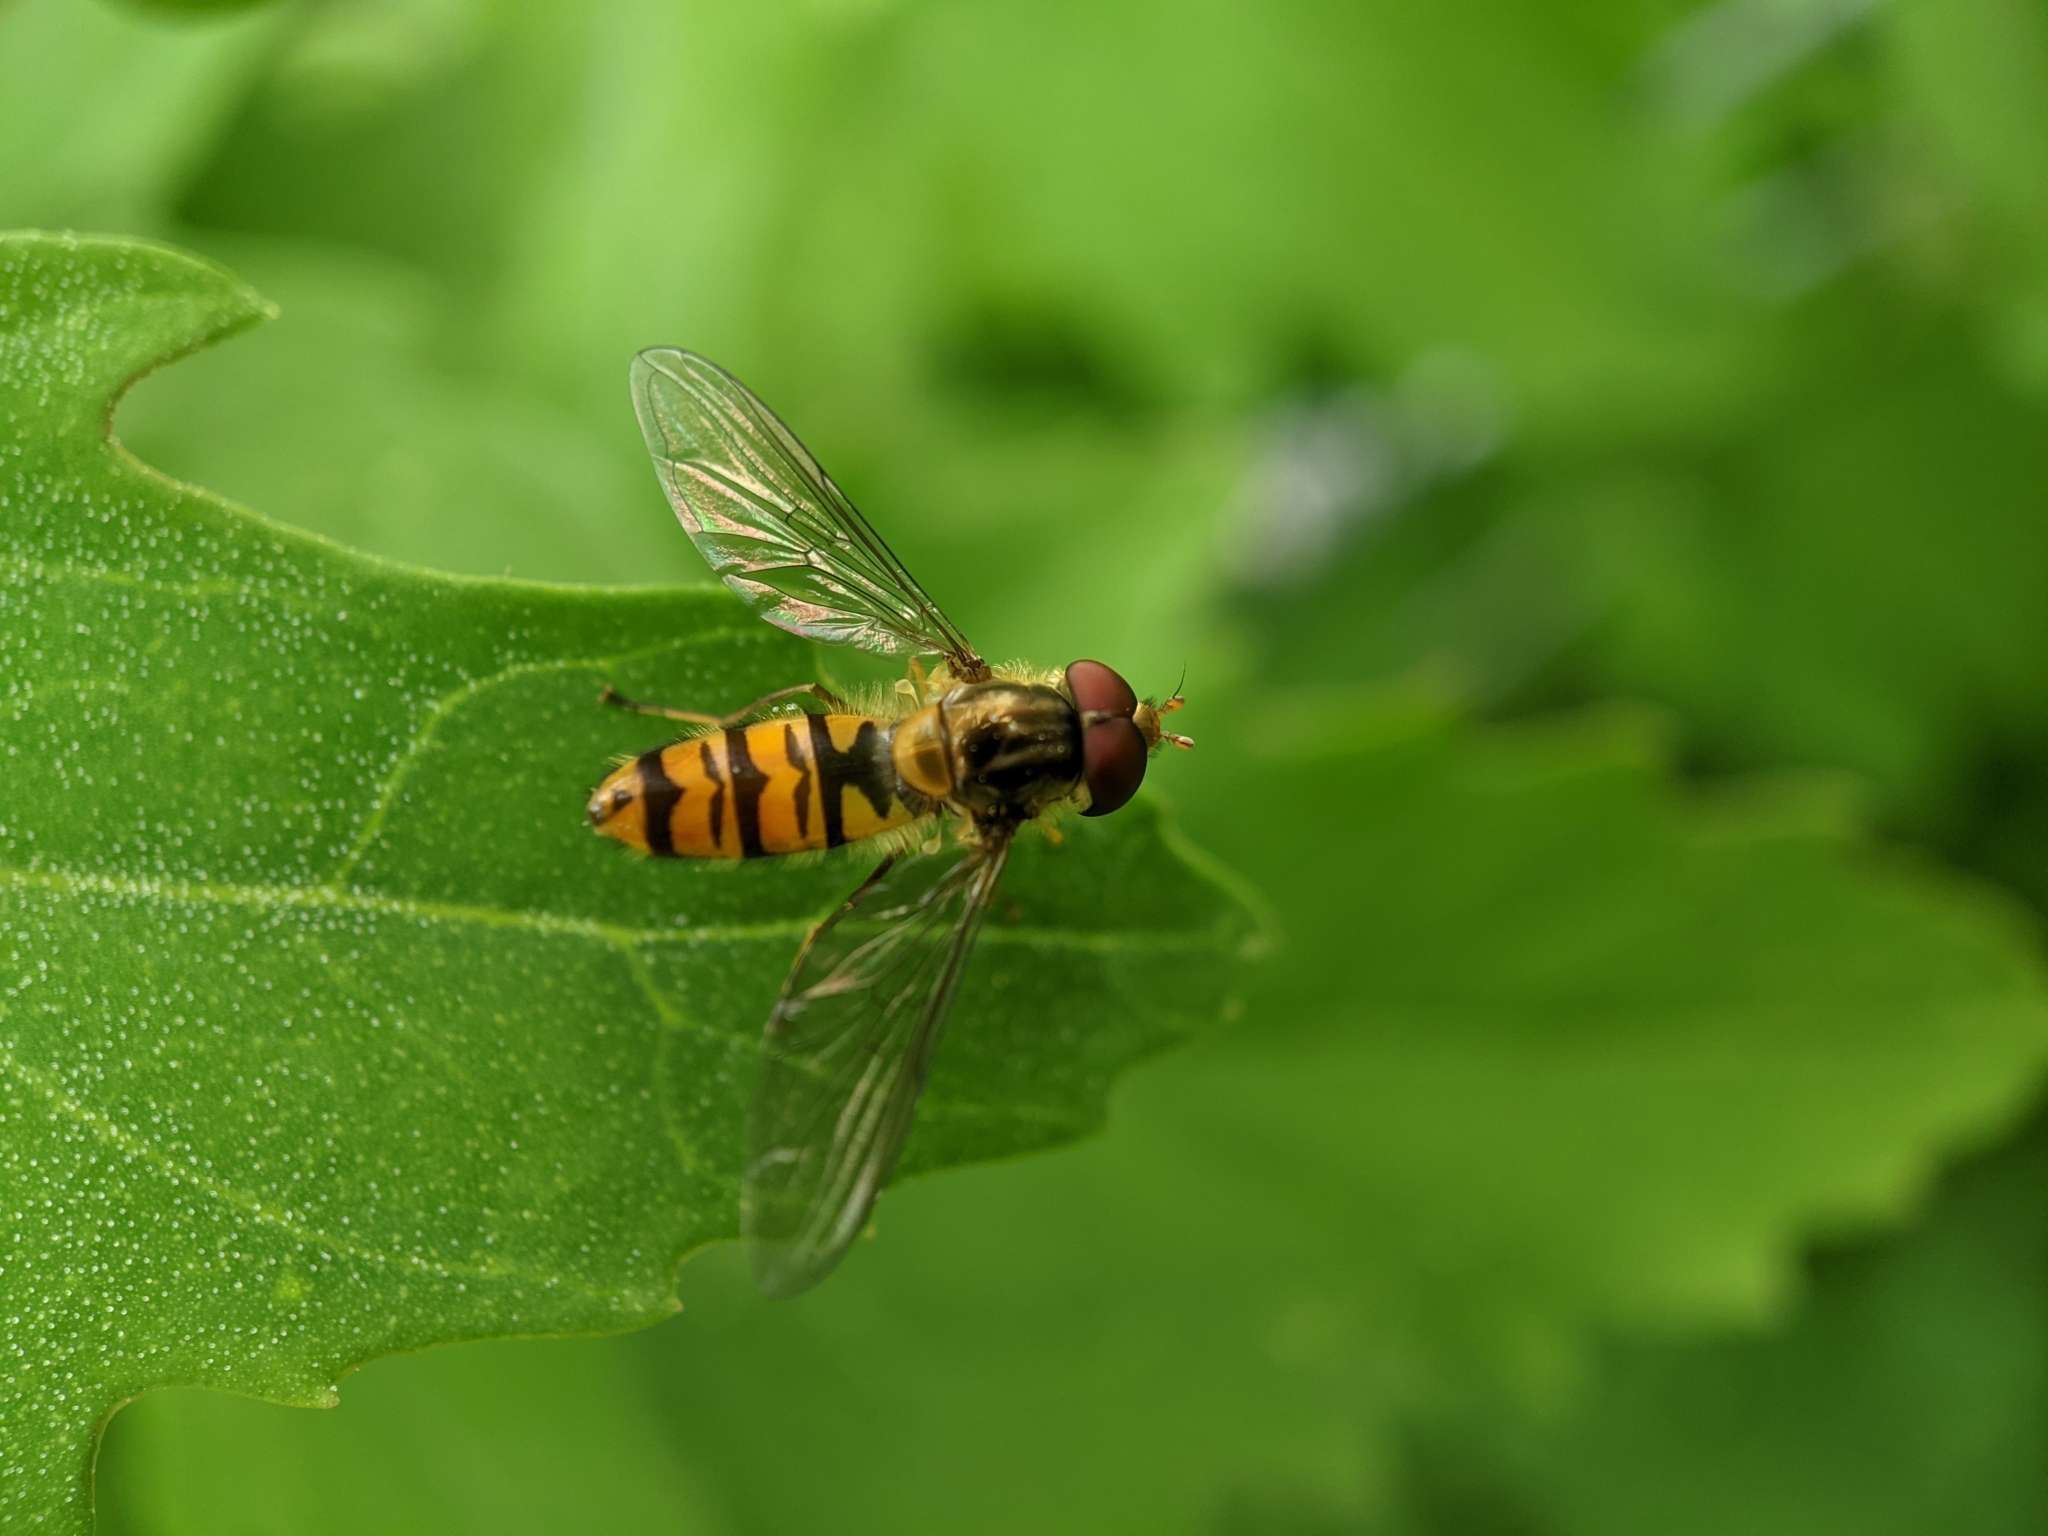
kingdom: Animalia
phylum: Arthropoda
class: Insecta
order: Diptera
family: Syrphidae
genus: Episyrphus
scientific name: Episyrphus balteatus
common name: Marmalade hoverfly
